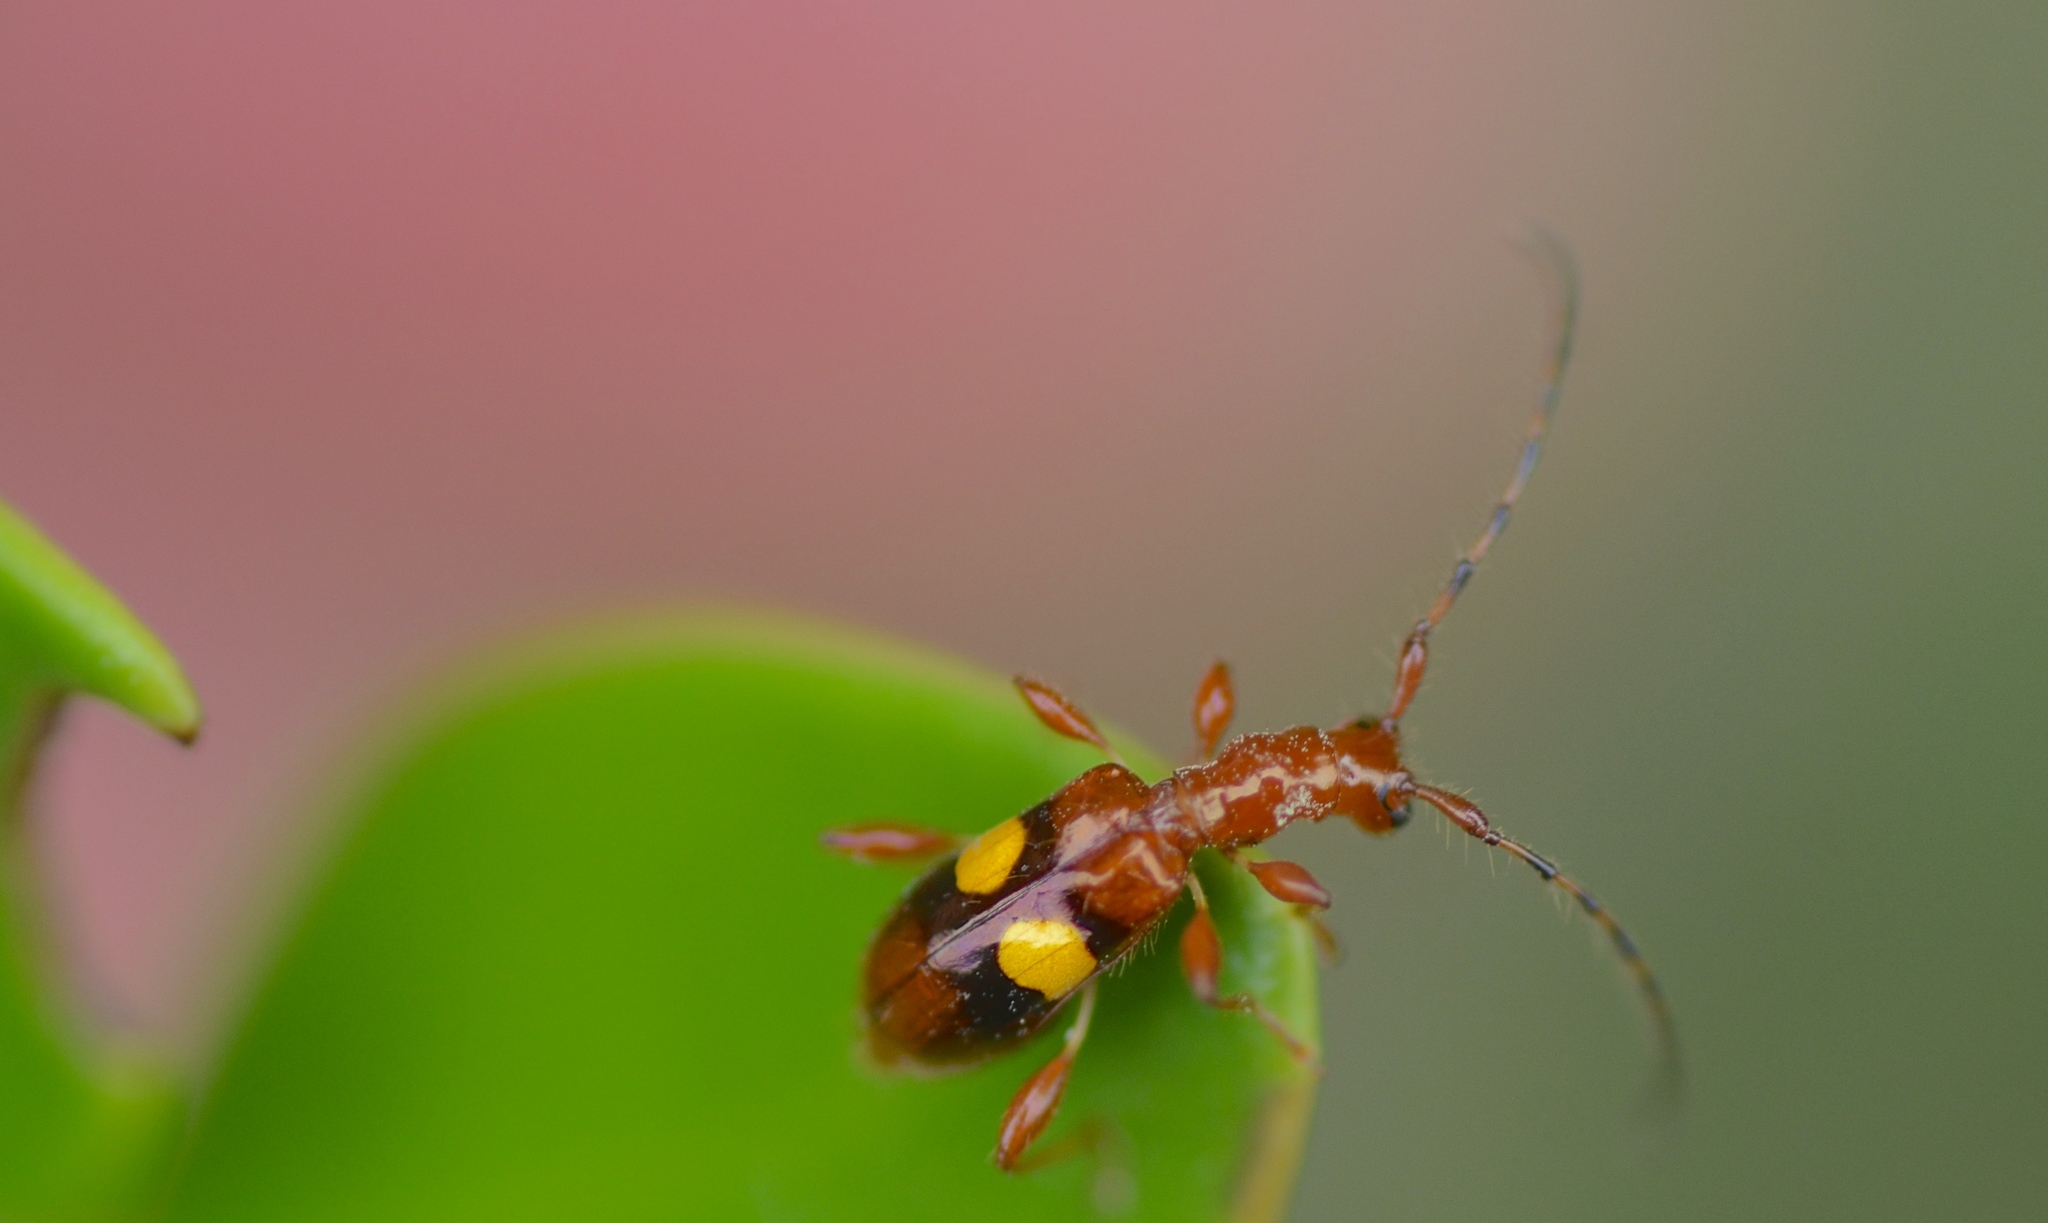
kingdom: Animalia
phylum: Arthropoda
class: Insecta
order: Coleoptera
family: Cerambycidae
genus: Zorion
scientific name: Zorion australe
